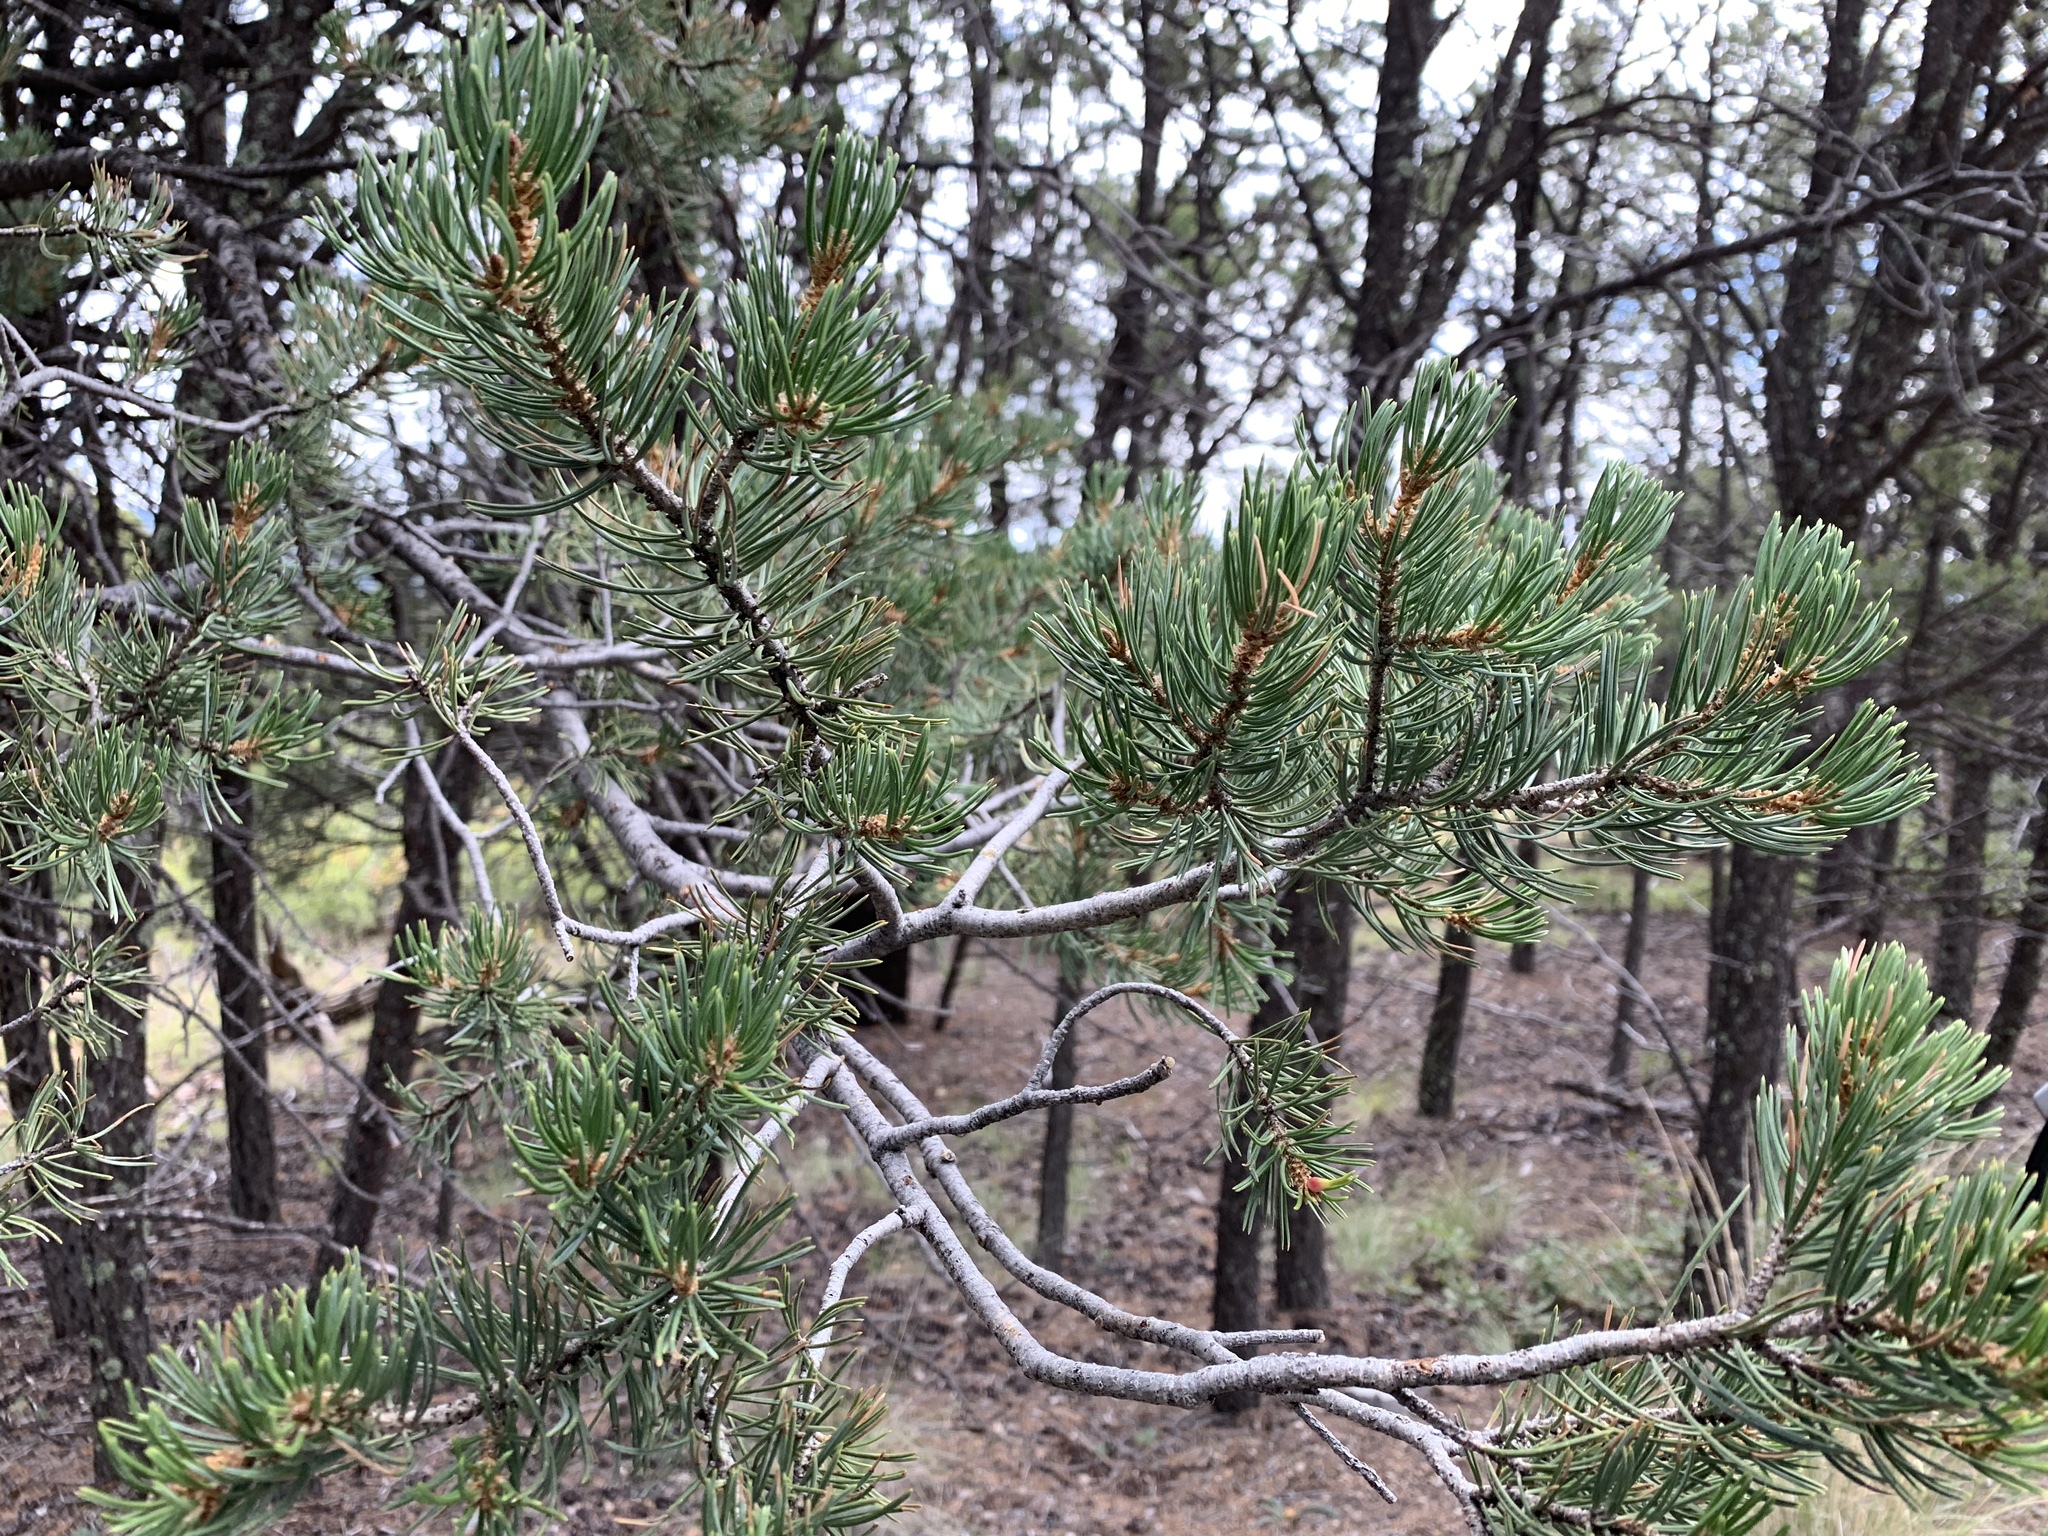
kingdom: Plantae
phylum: Tracheophyta
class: Pinopsida
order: Pinales
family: Pinaceae
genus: Pinus
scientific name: Pinus edulis
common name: Colorado pinyon
